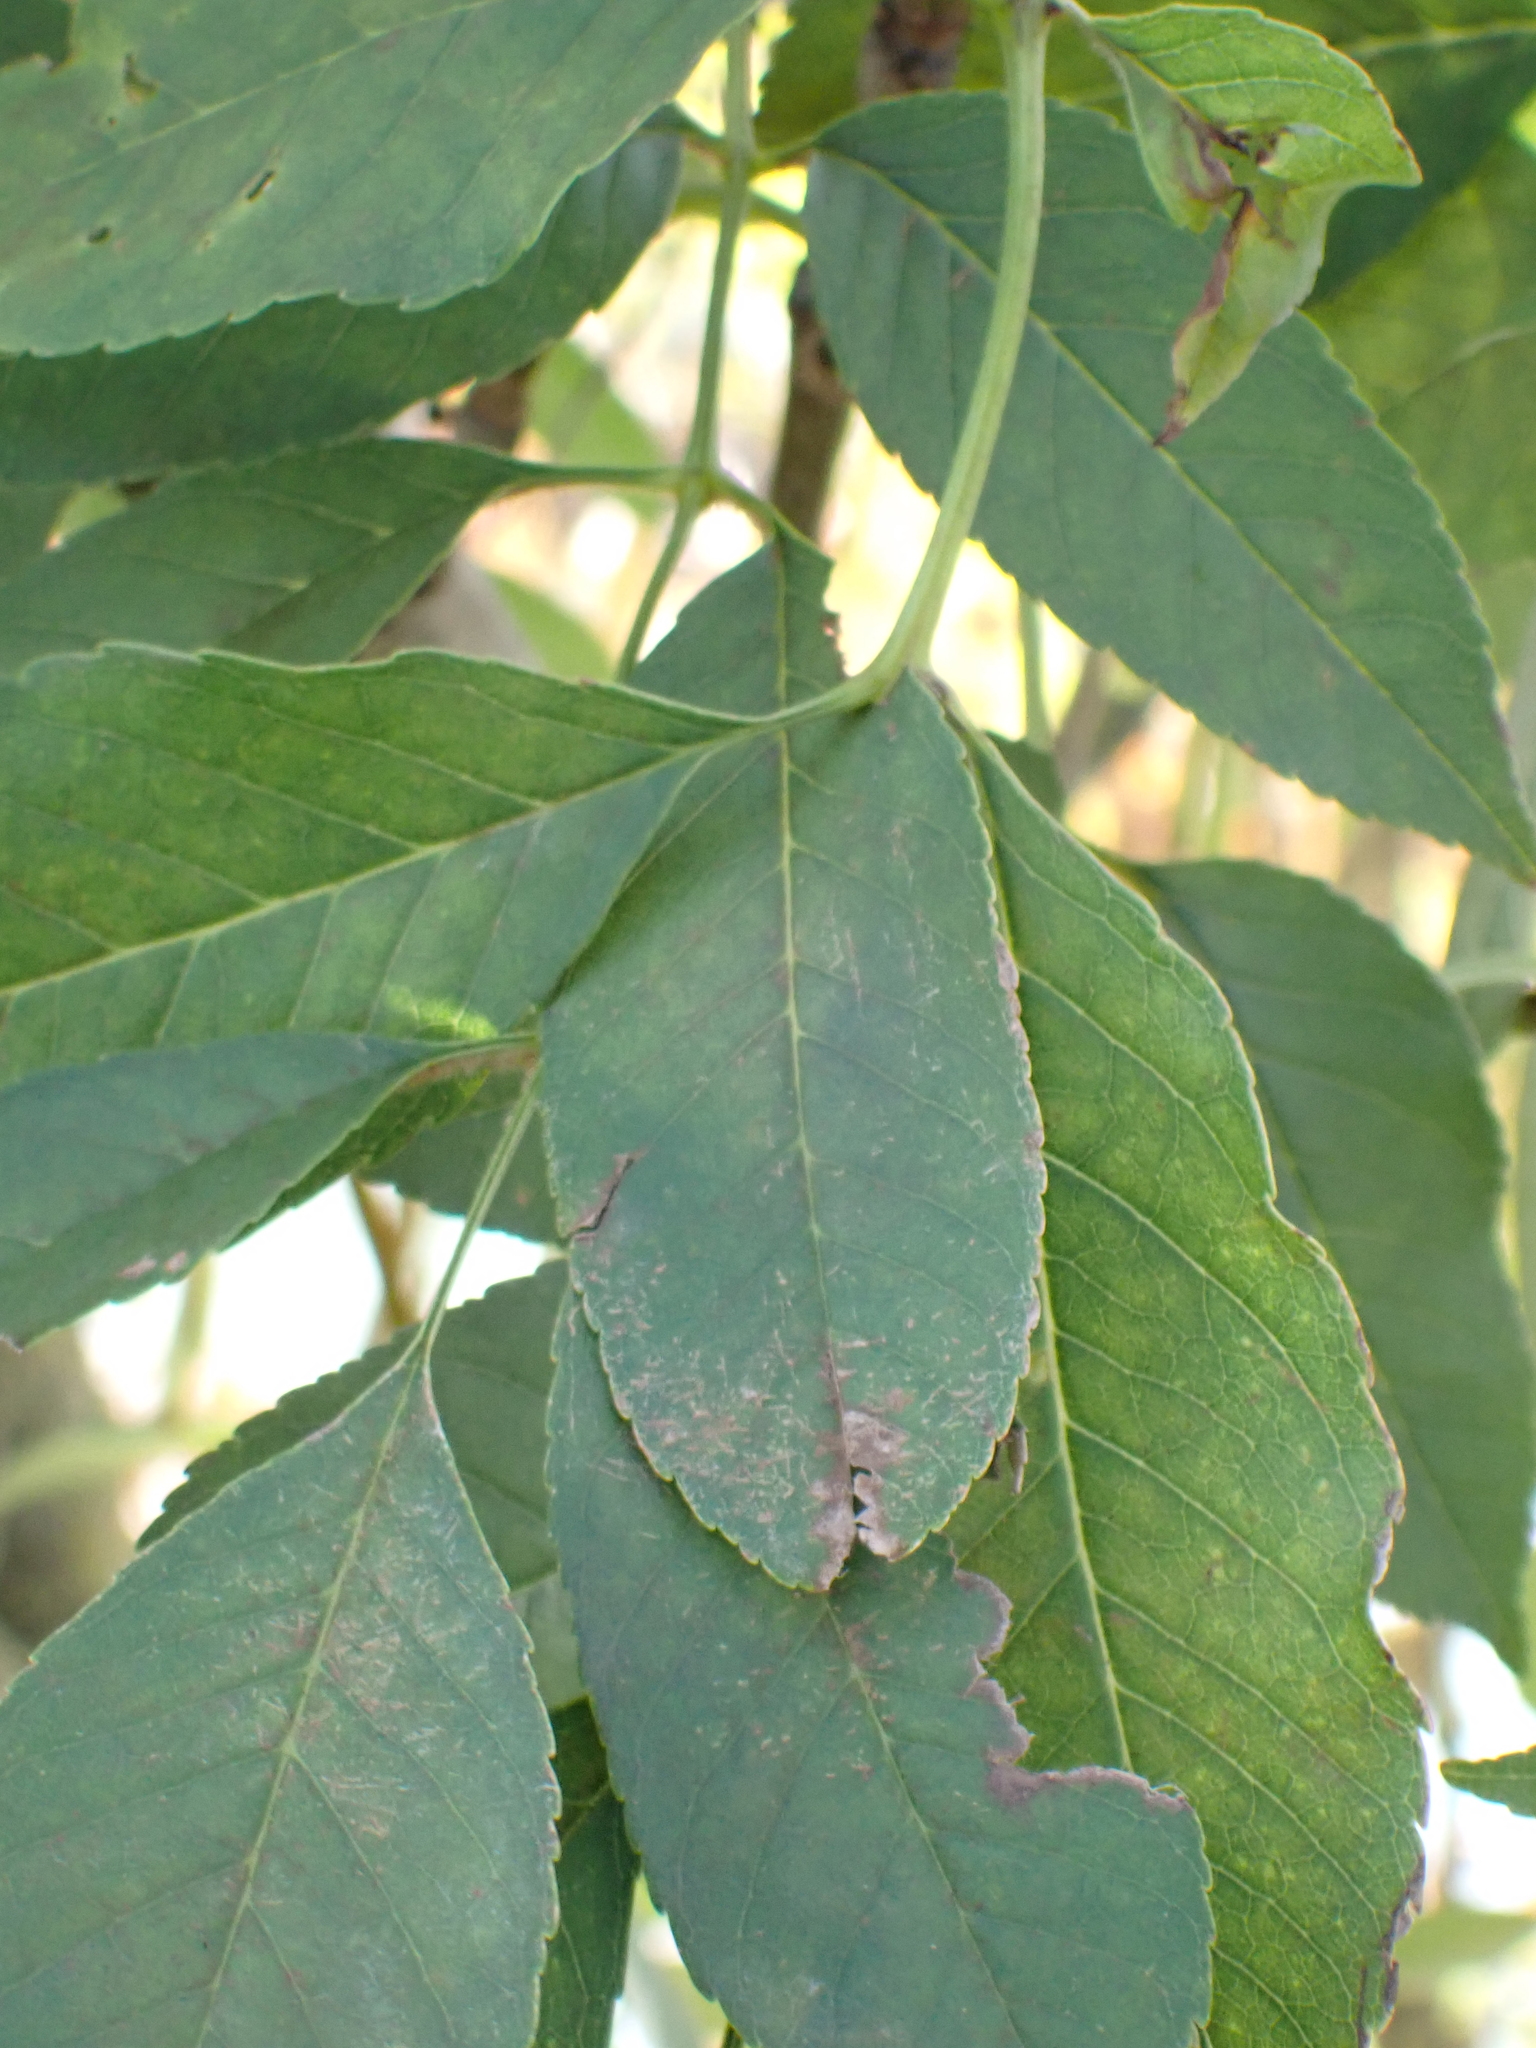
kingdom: Plantae
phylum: Tracheophyta
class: Magnoliopsida
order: Lamiales
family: Oleaceae
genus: Fraxinus
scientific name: Fraxinus ornus
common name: Manna ash
